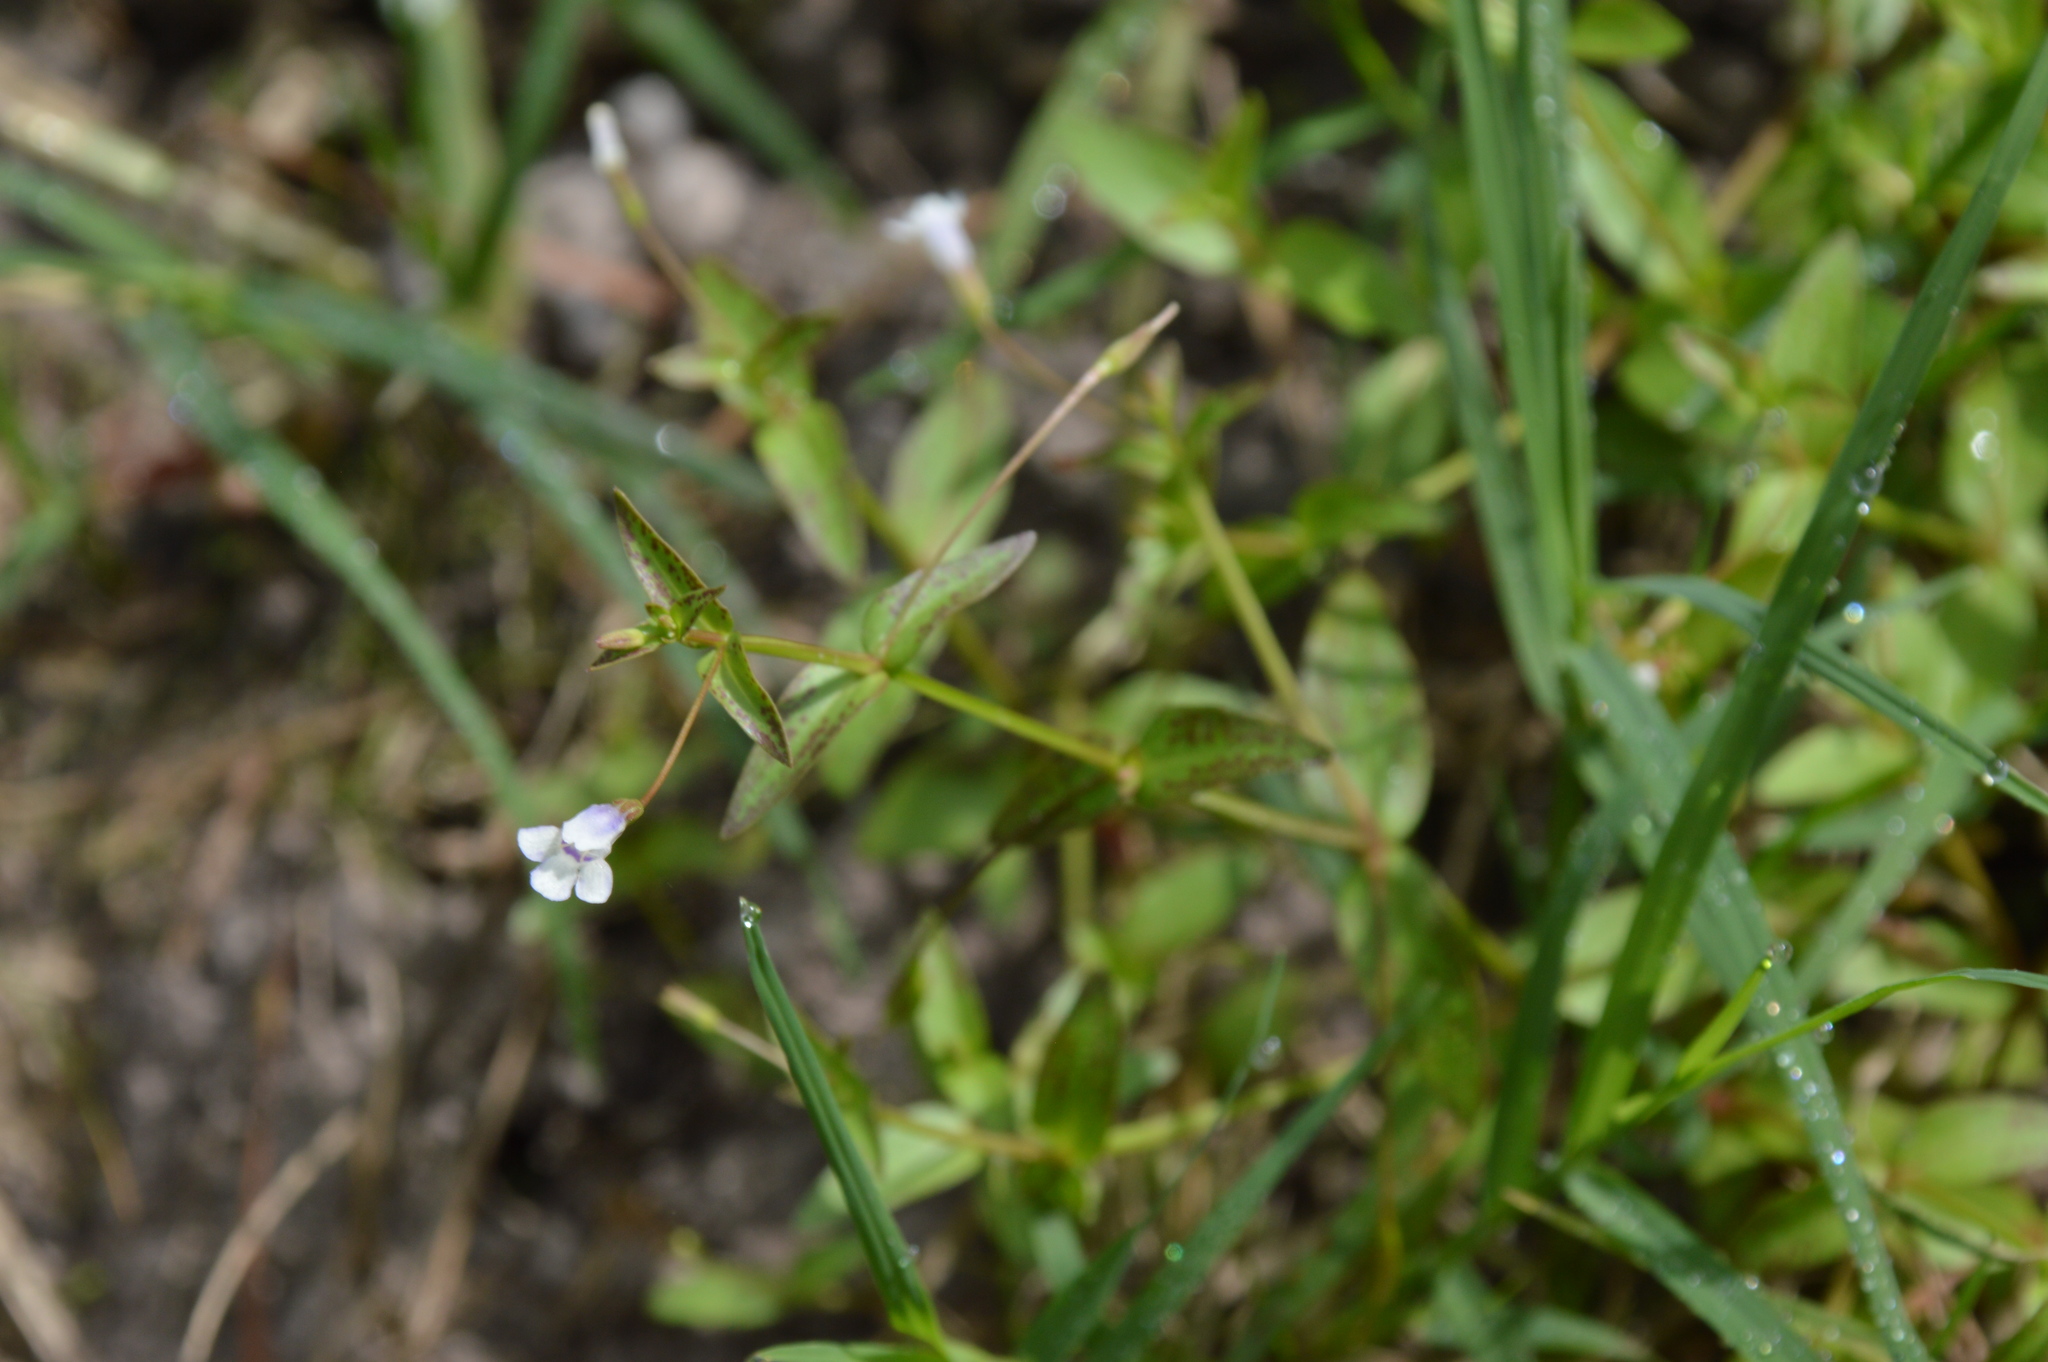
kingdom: Plantae
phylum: Tracheophyta
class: Magnoliopsida
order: Lamiales
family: Linderniaceae
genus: Lindernia
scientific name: Lindernia dubia
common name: Annual false pimpernel
